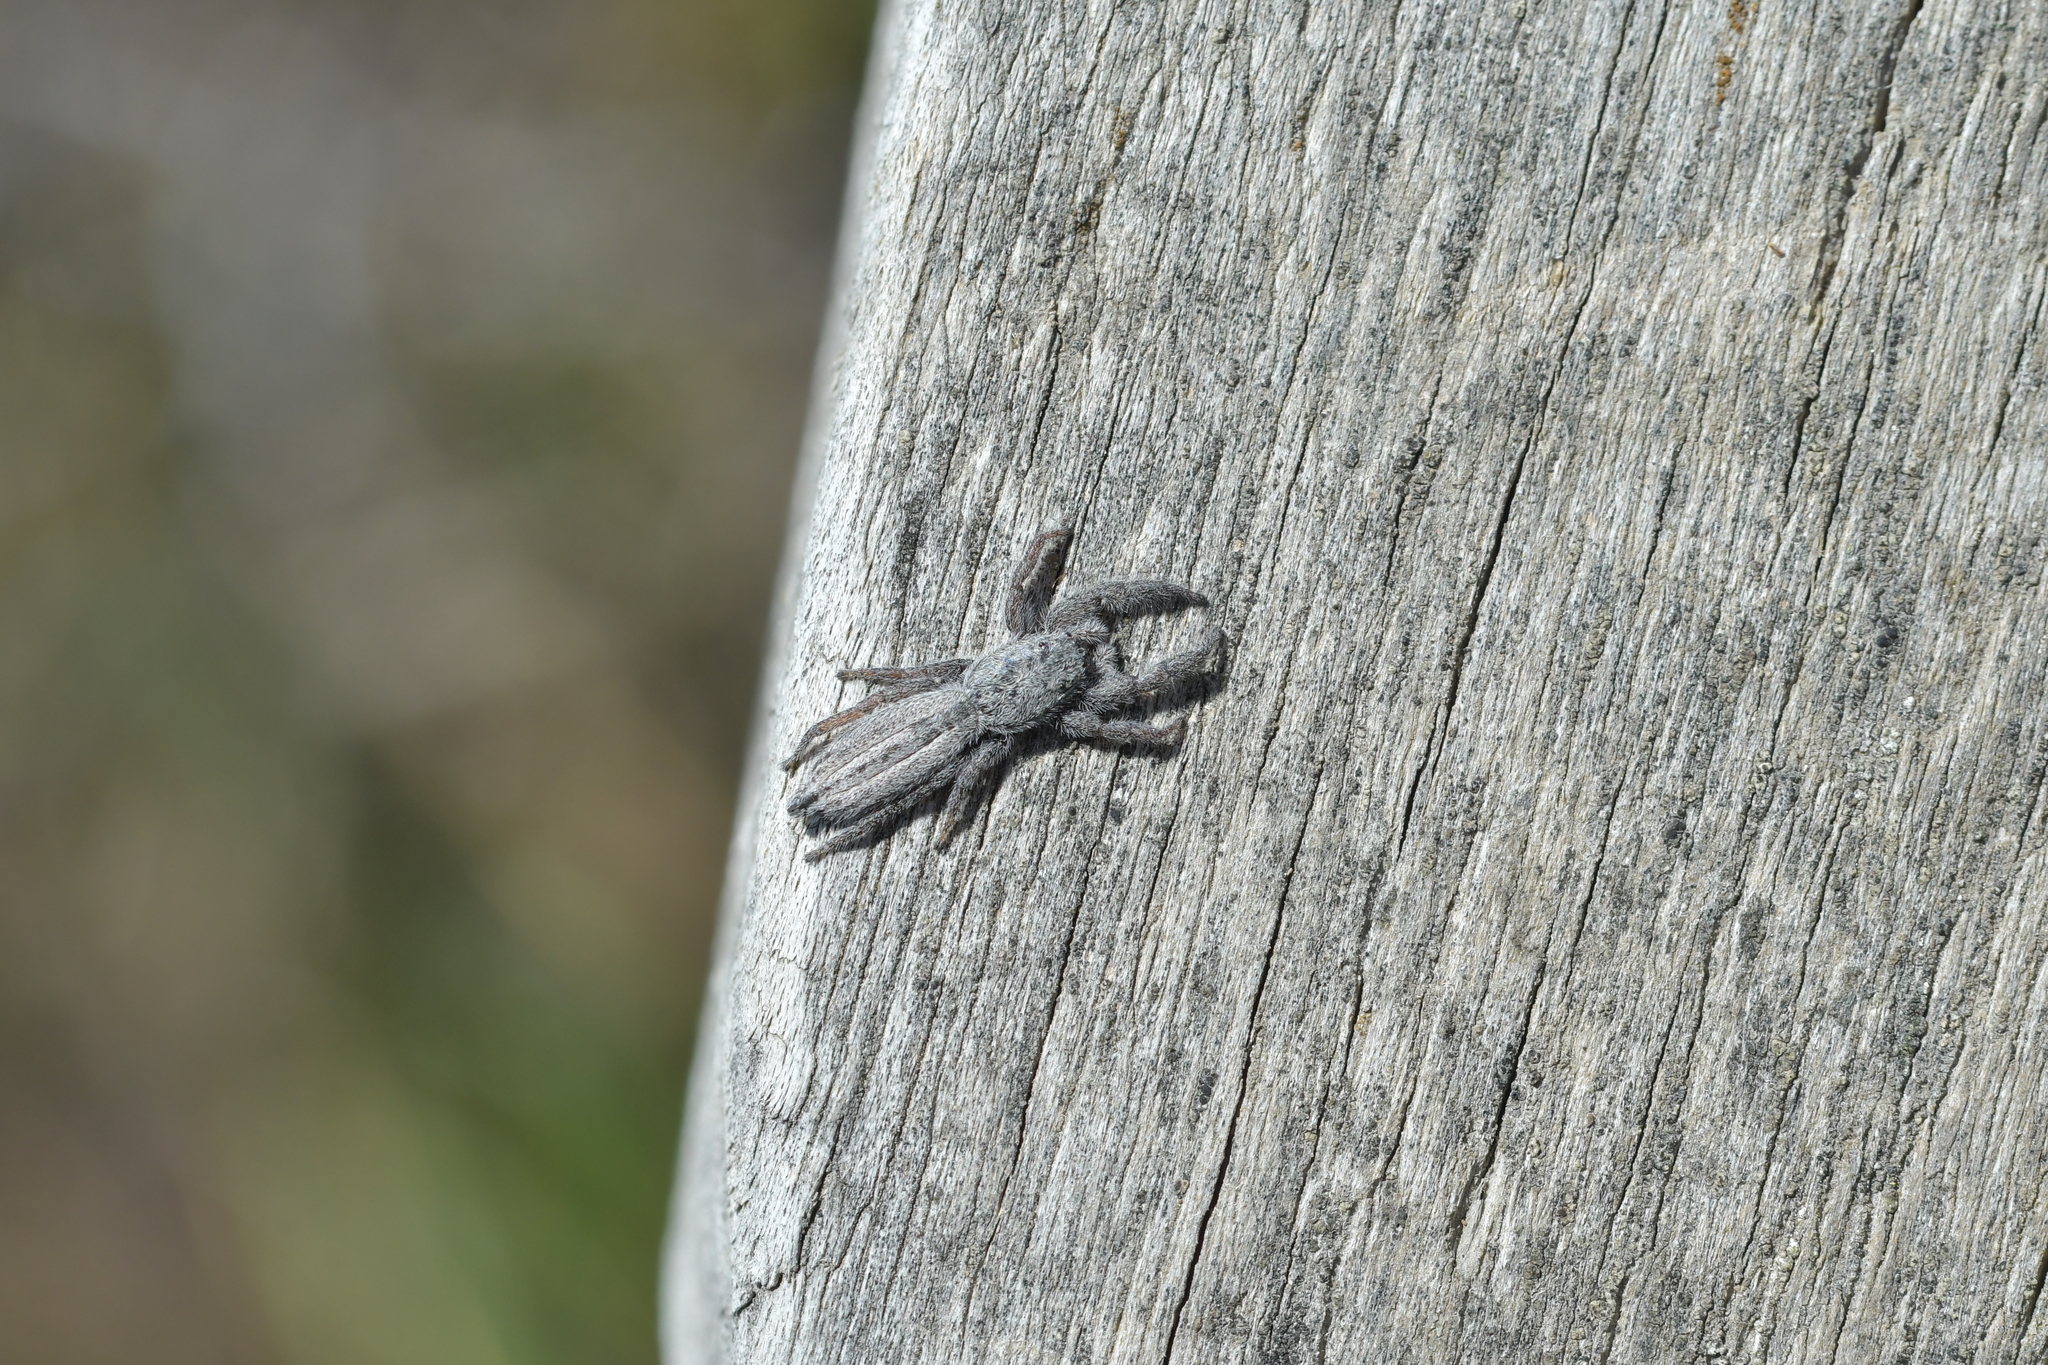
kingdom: Animalia
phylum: Arthropoda
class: Arachnida
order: Araneae
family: Salticidae
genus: Holoplatys
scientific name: Holoplatys apressus
